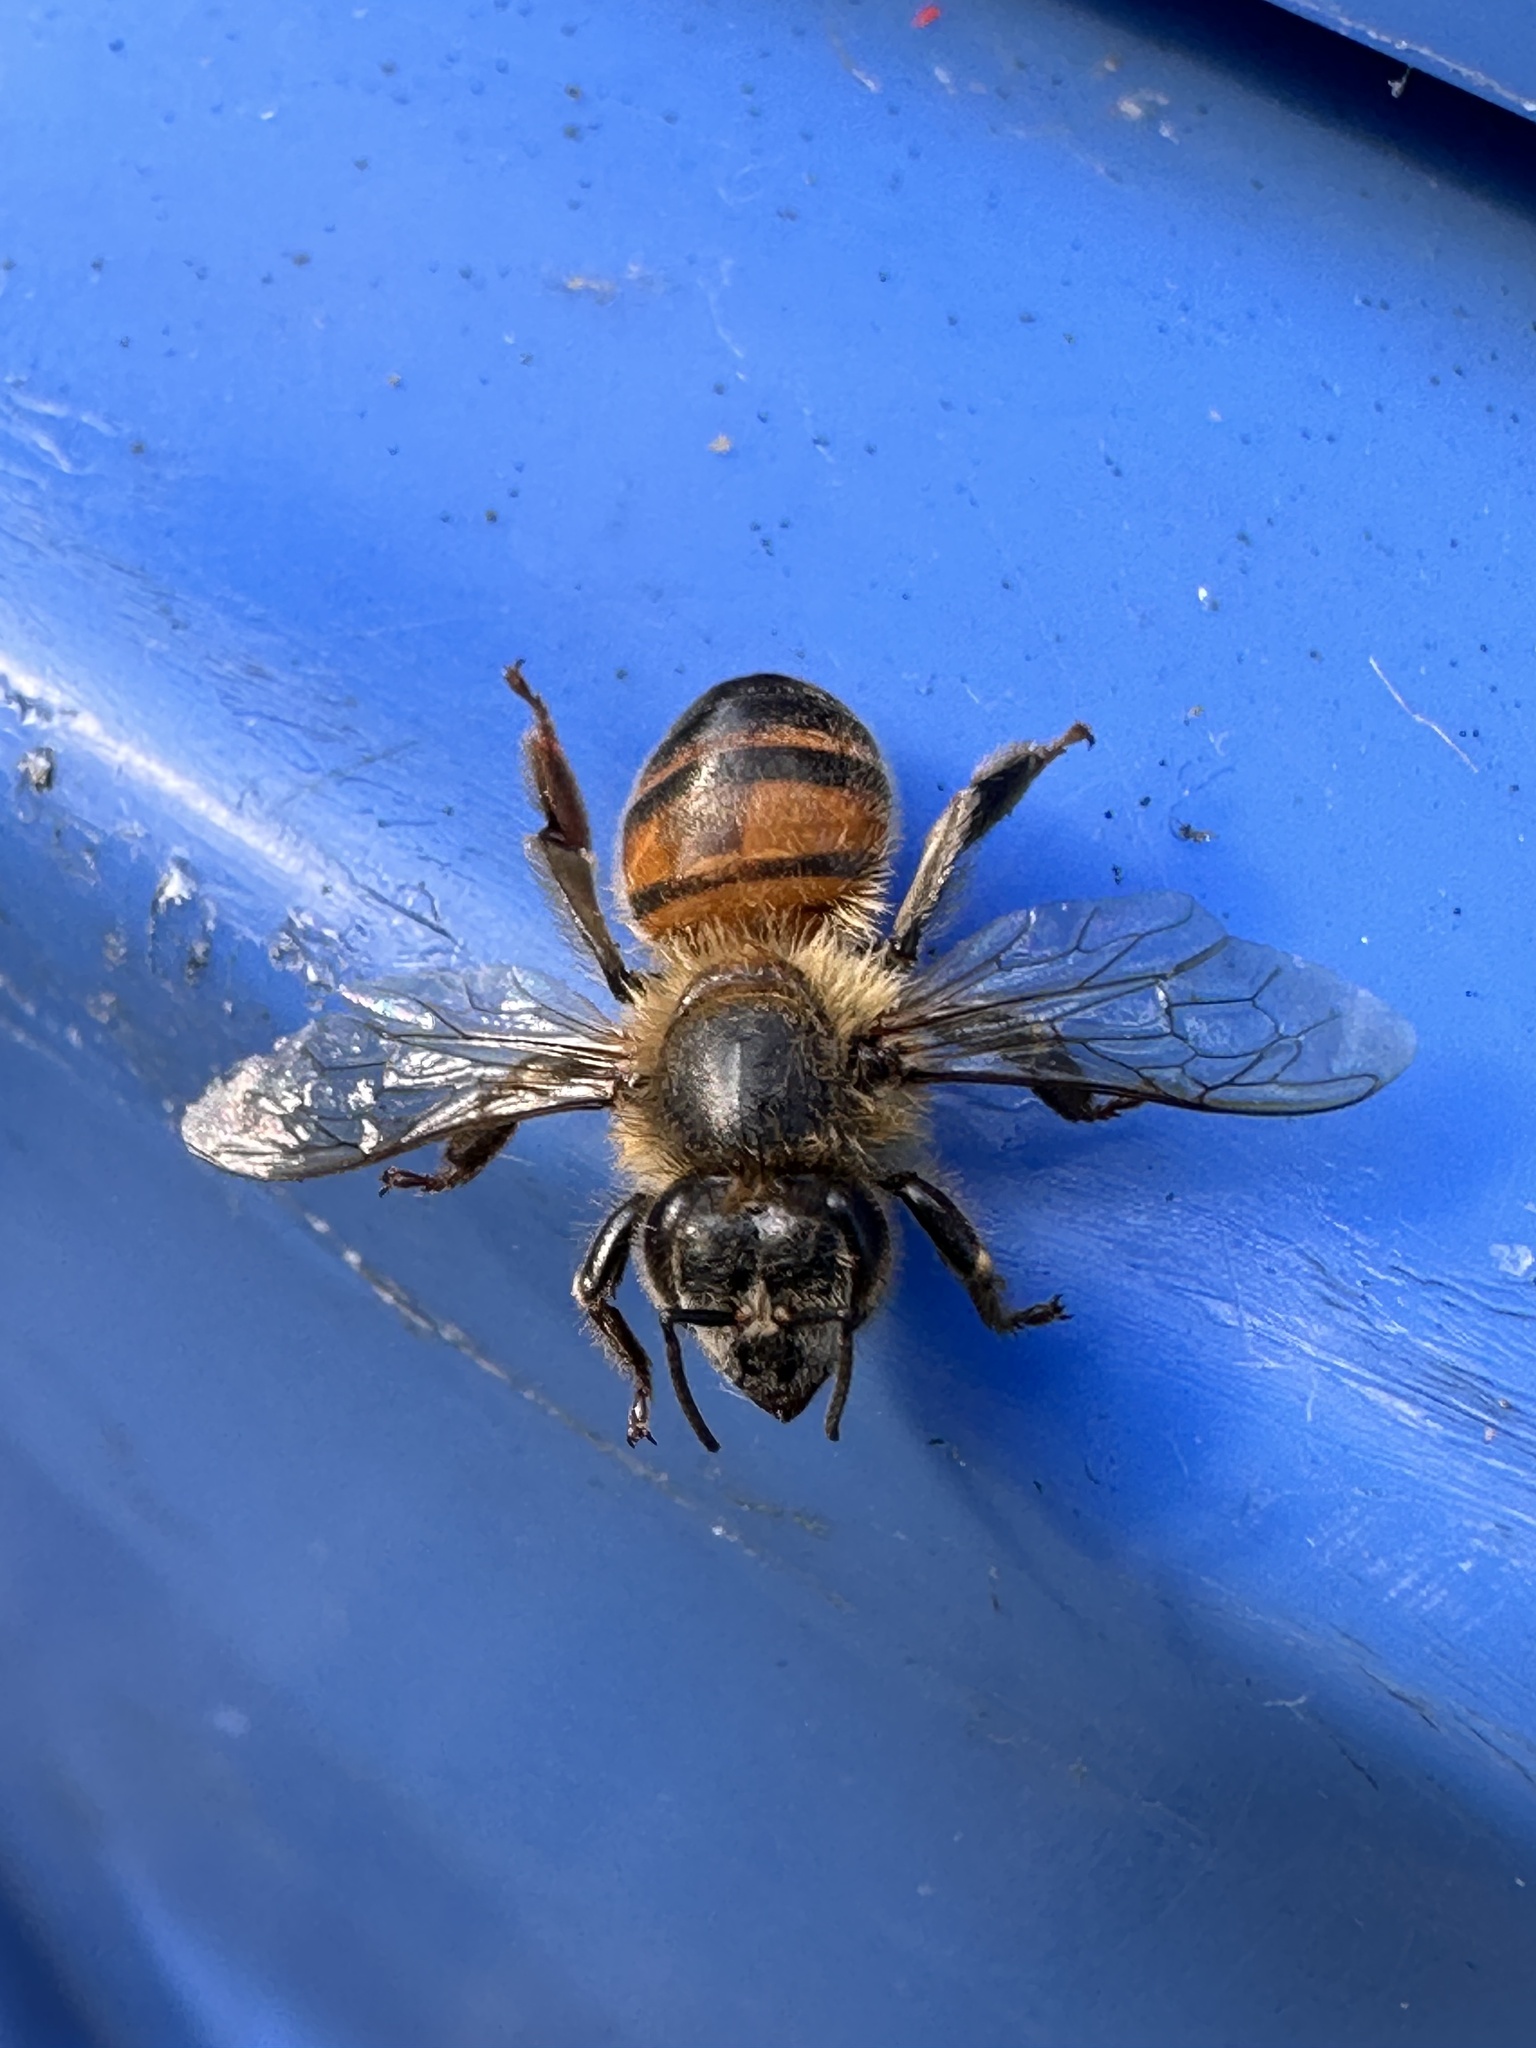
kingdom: Animalia
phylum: Arthropoda
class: Insecta
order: Hymenoptera
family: Apidae
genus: Apis
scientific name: Apis mellifera
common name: Honey bee
